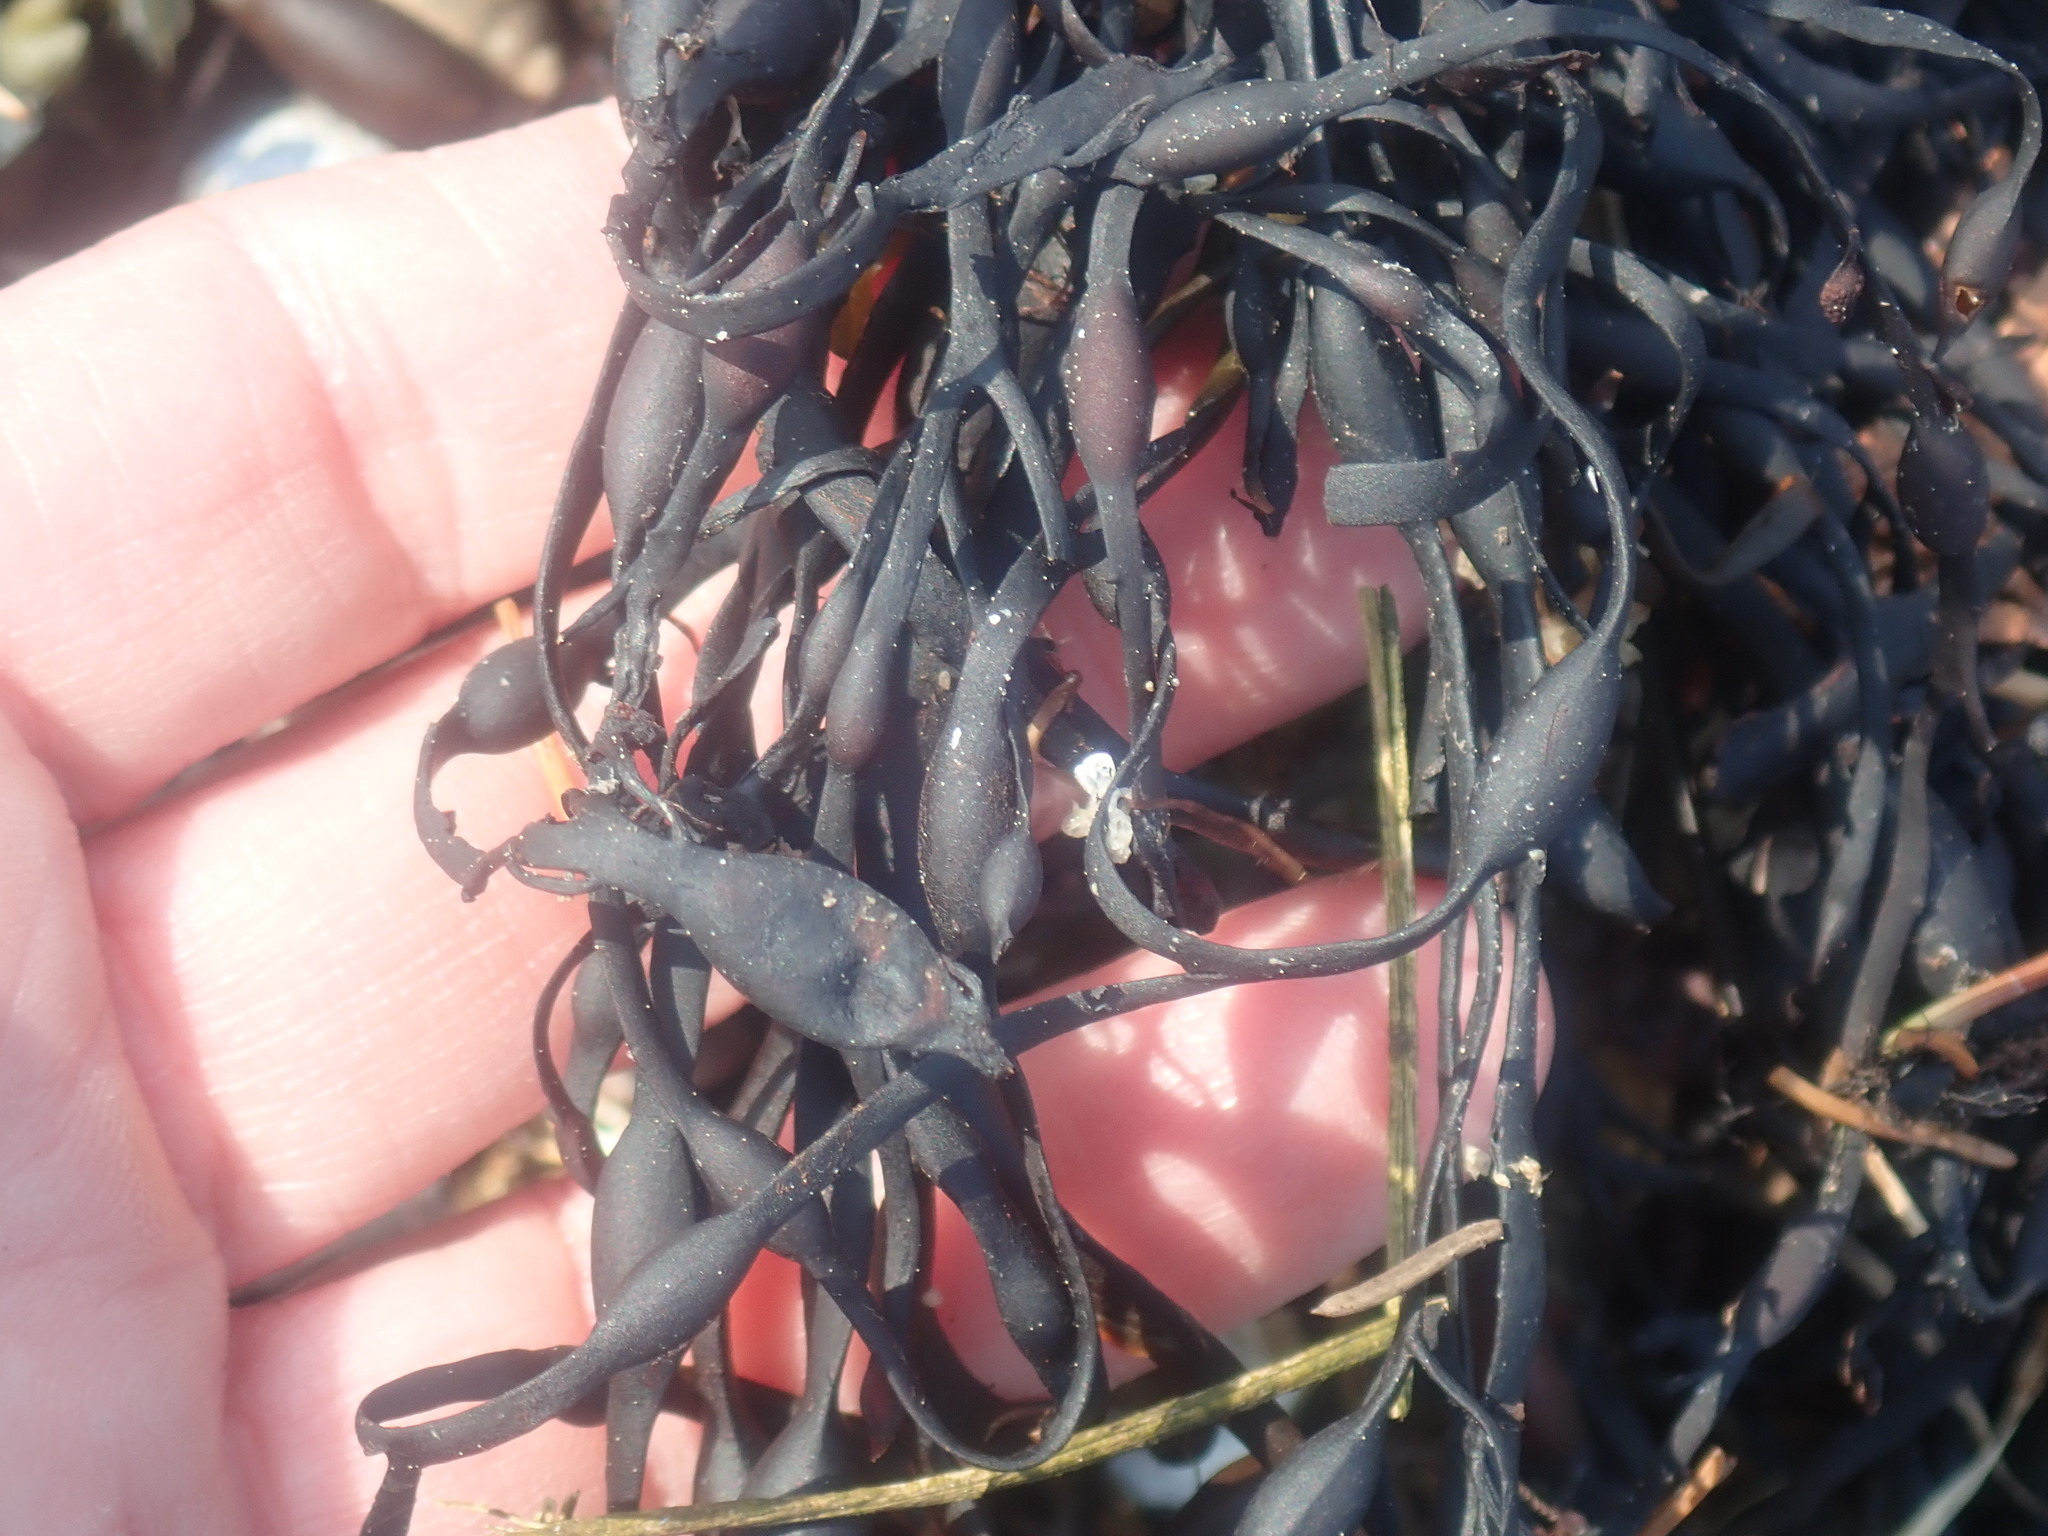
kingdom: Chromista
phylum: Ochrophyta
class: Phaeophyceae
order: Fucales
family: Fucaceae
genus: Ascophyllum
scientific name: Ascophyllum nodosum
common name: Knotted wrack
